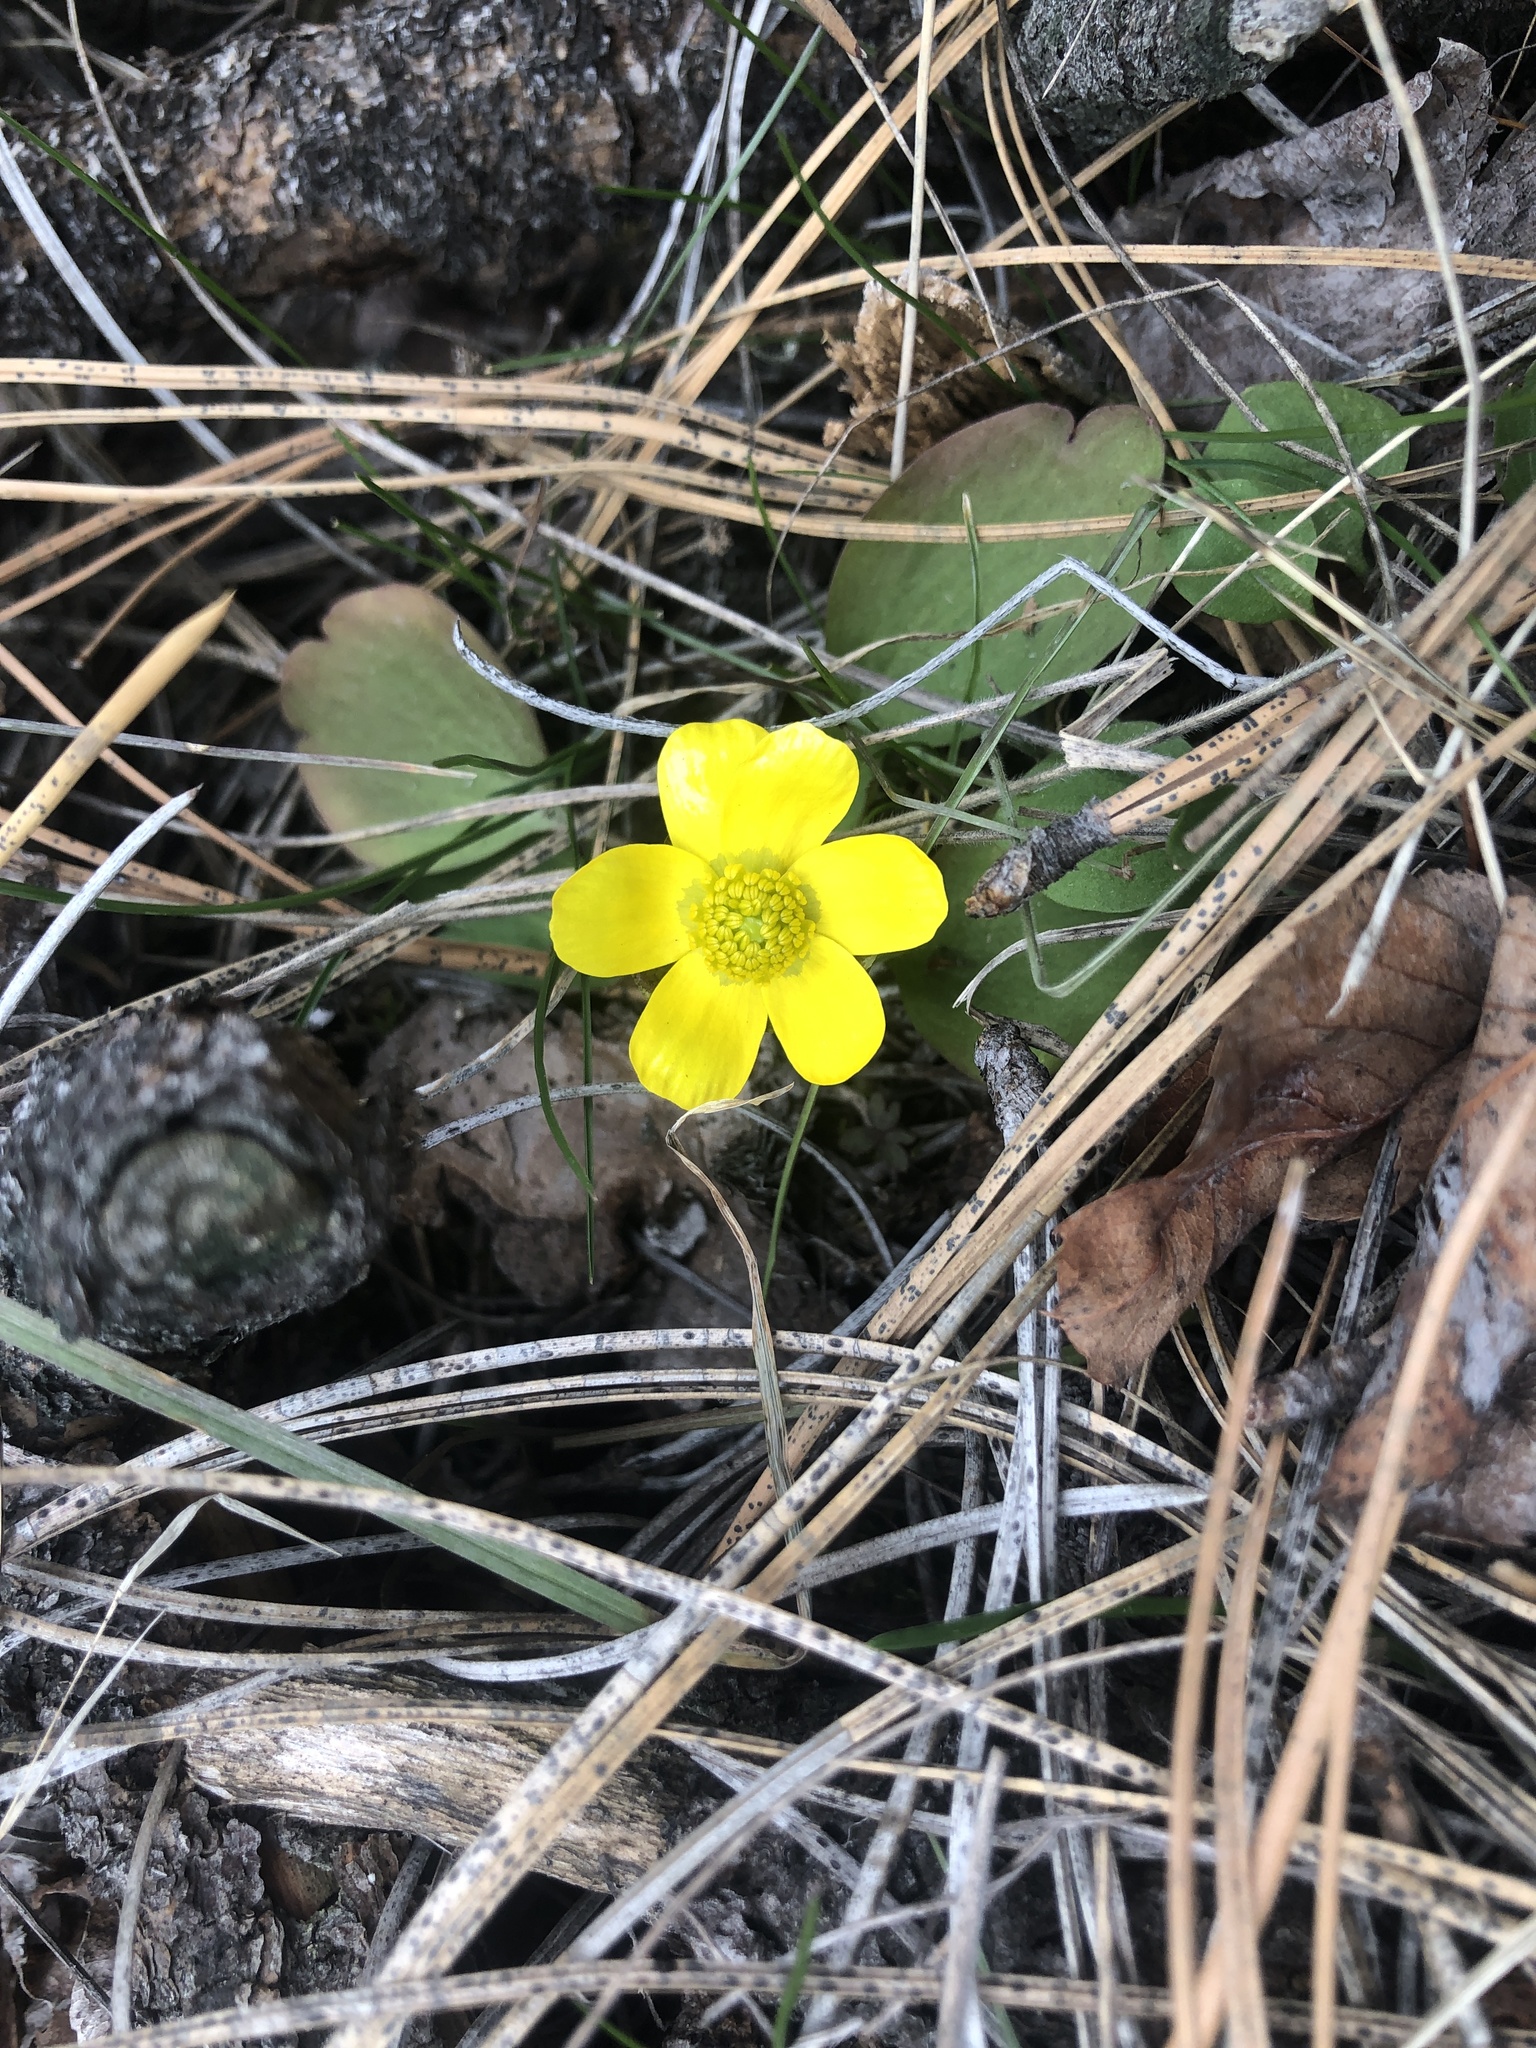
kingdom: Plantae
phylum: Tracheophyta
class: Magnoliopsida
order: Ranunculales
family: Ranunculaceae
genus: Ranunculus
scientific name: Ranunculus glaberrimus
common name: Sagebrush buttercup
